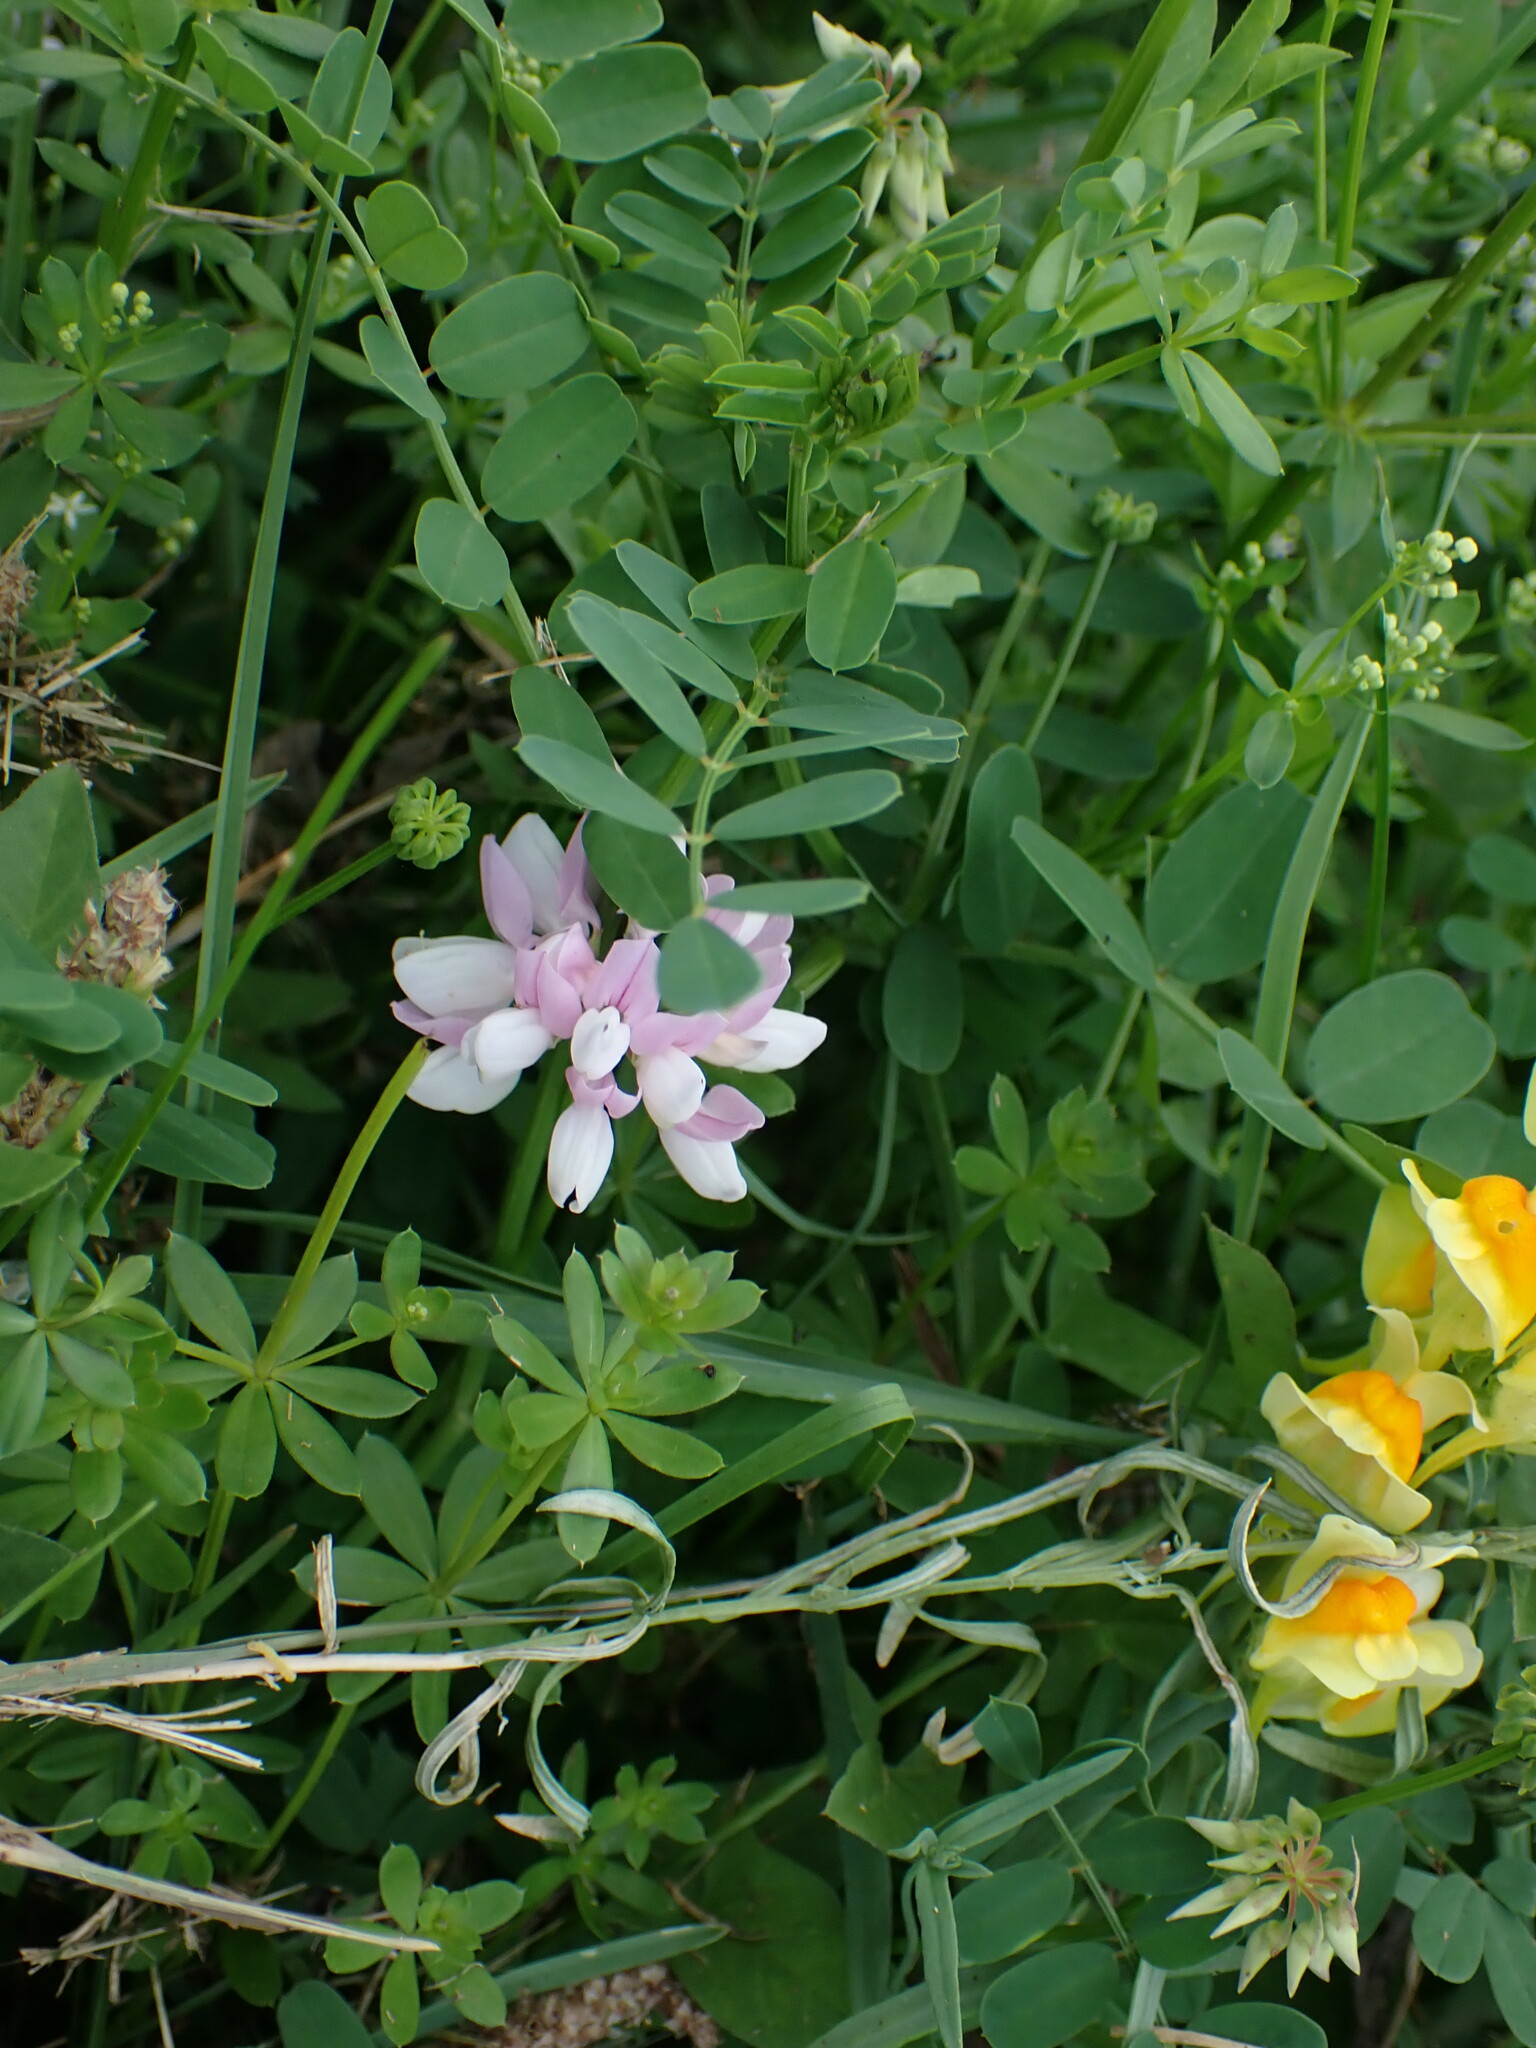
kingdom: Plantae
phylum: Tracheophyta
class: Magnoliopsida
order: Fabales
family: Fabaceae
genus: Coronilla
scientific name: Coronilla varia
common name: Crownvetch
